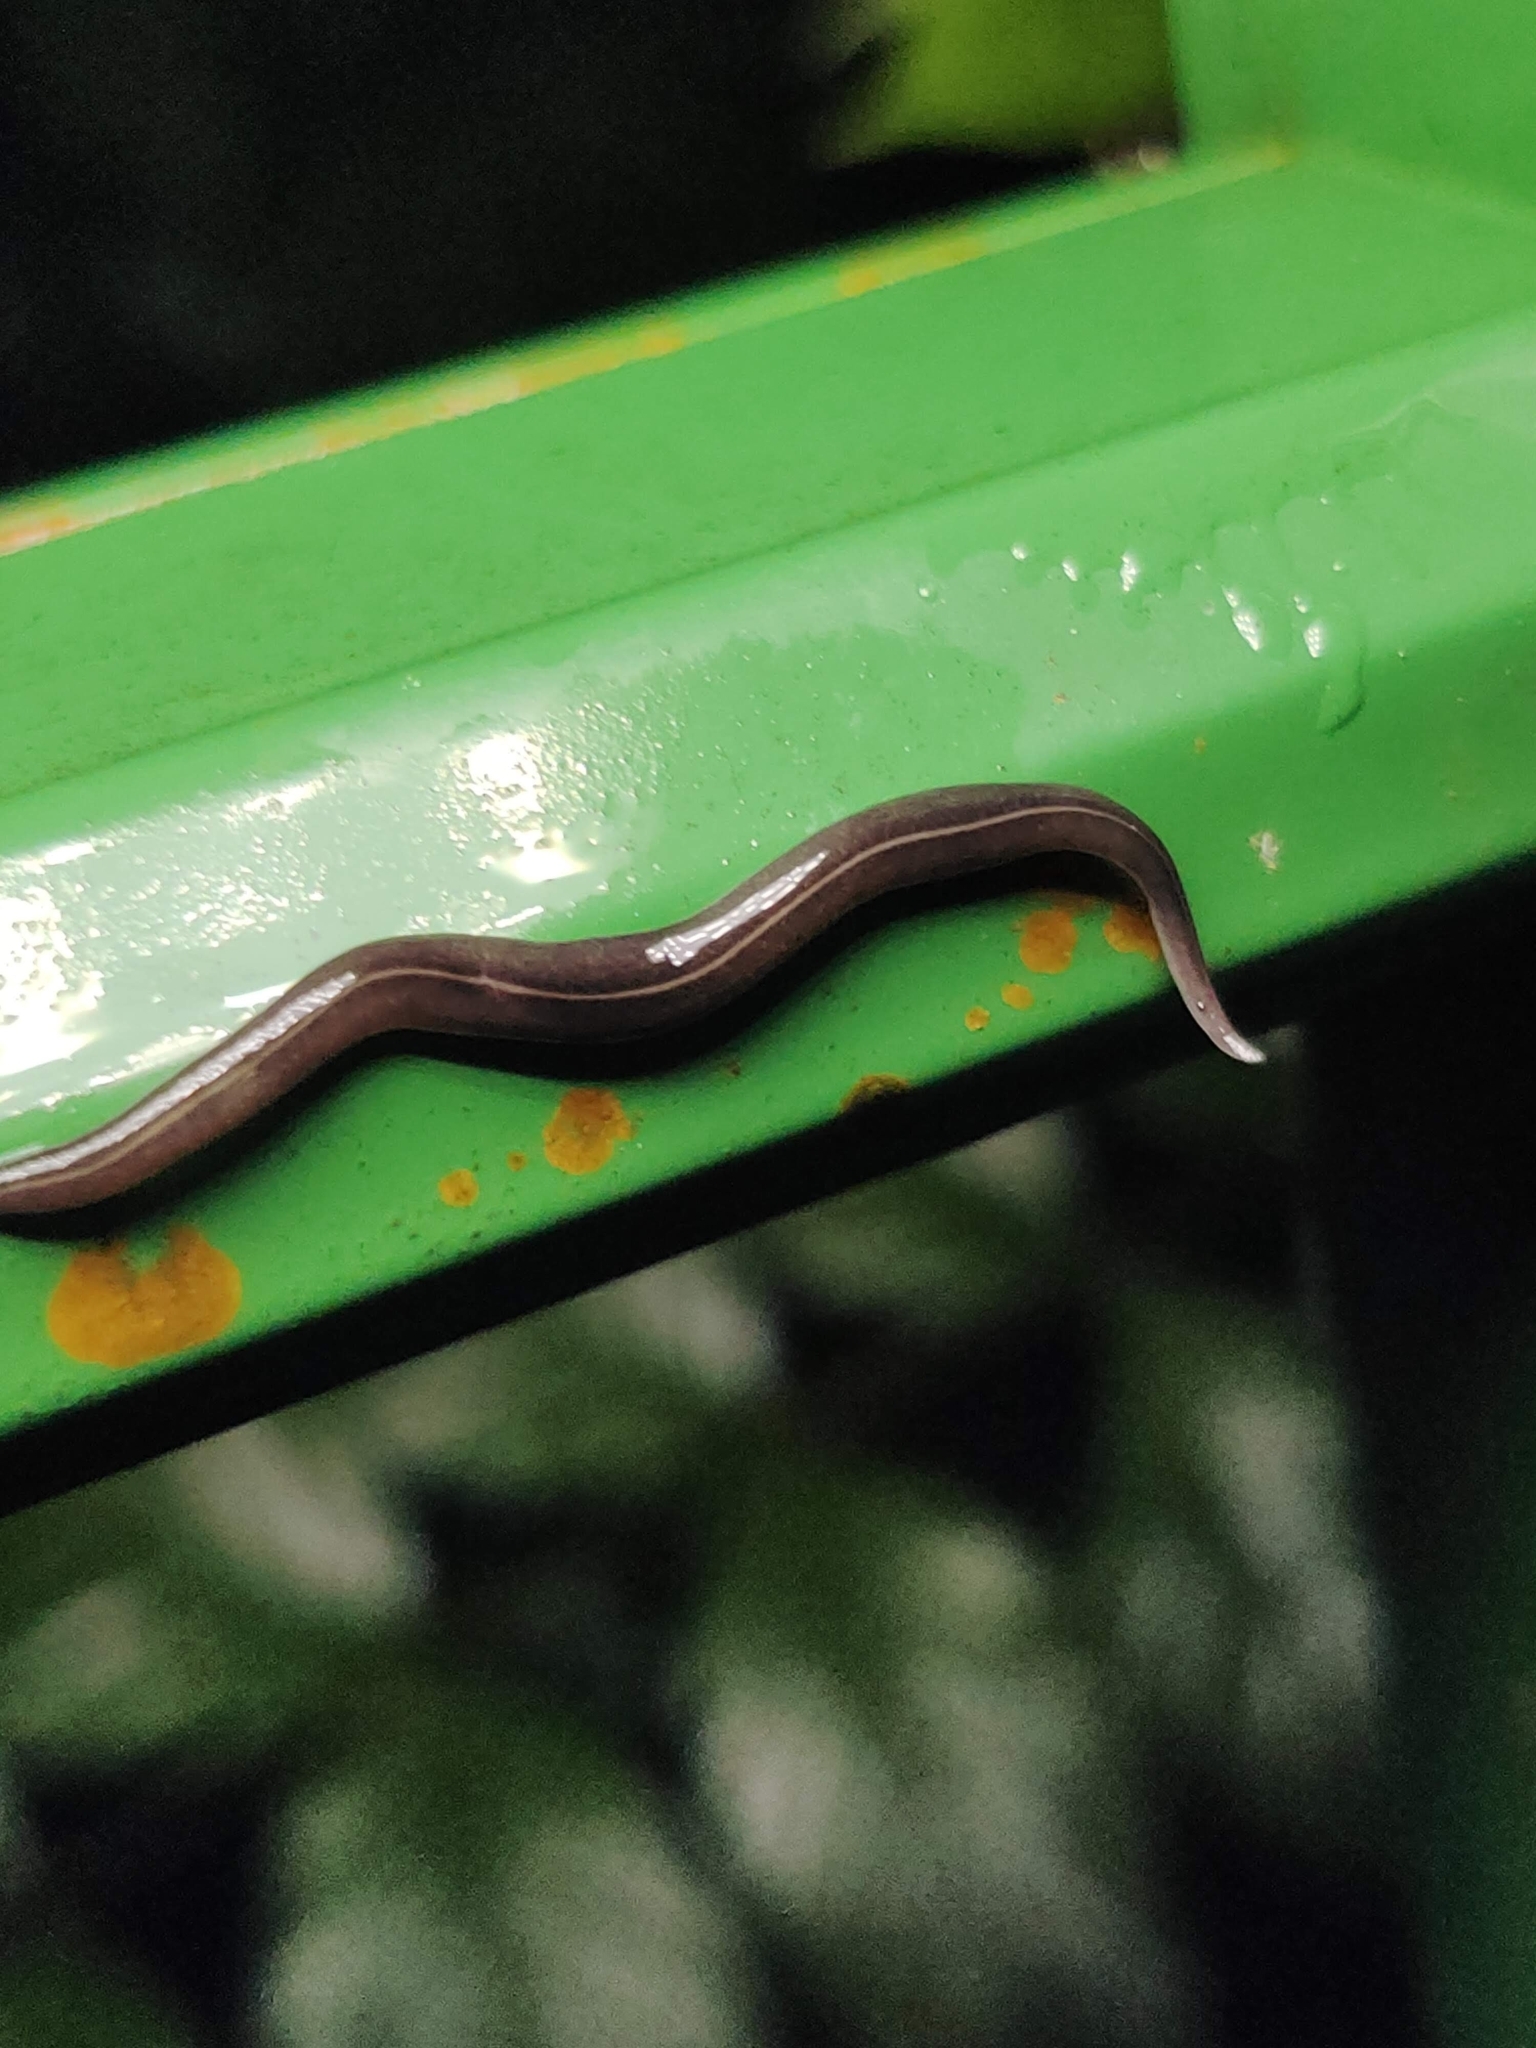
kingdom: Animalia
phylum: Platyhelminthes
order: Tricladida
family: Geoplanidae
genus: Platydemus
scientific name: Platydemus manokwari
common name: New guinea flatworm
